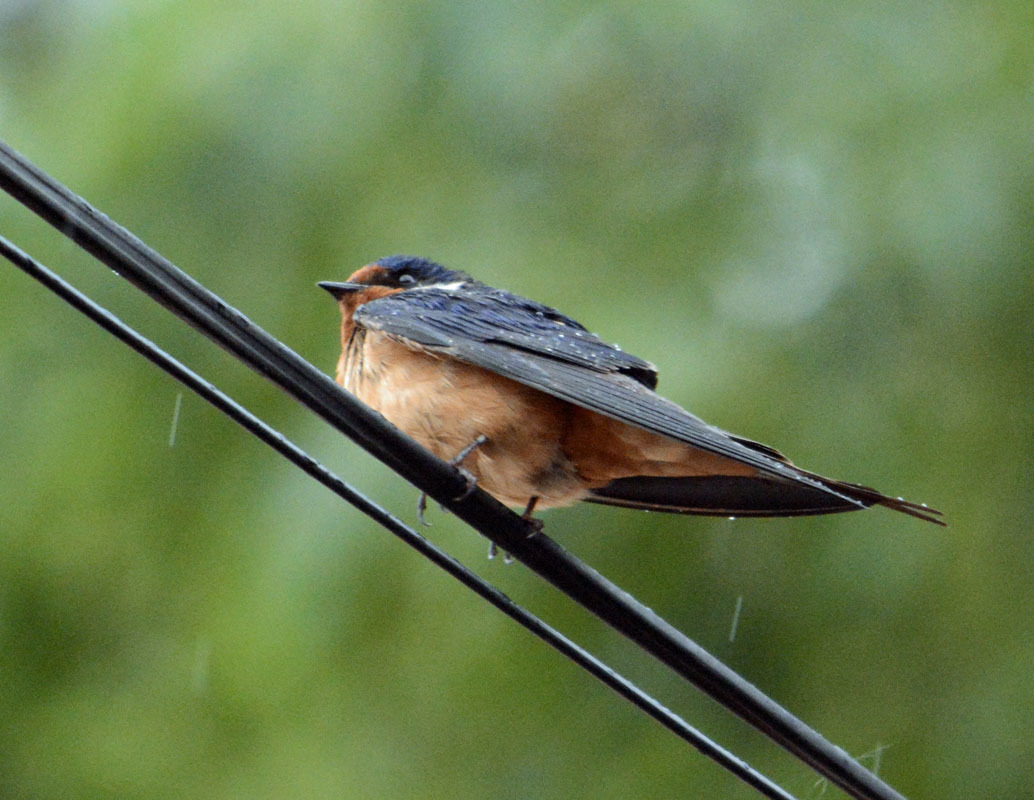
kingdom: Animalia
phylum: Chordata
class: Aves
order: Passeriformes
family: Hirundinidae
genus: Hirundo
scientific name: Hirundo rustica
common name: Barn swallow
